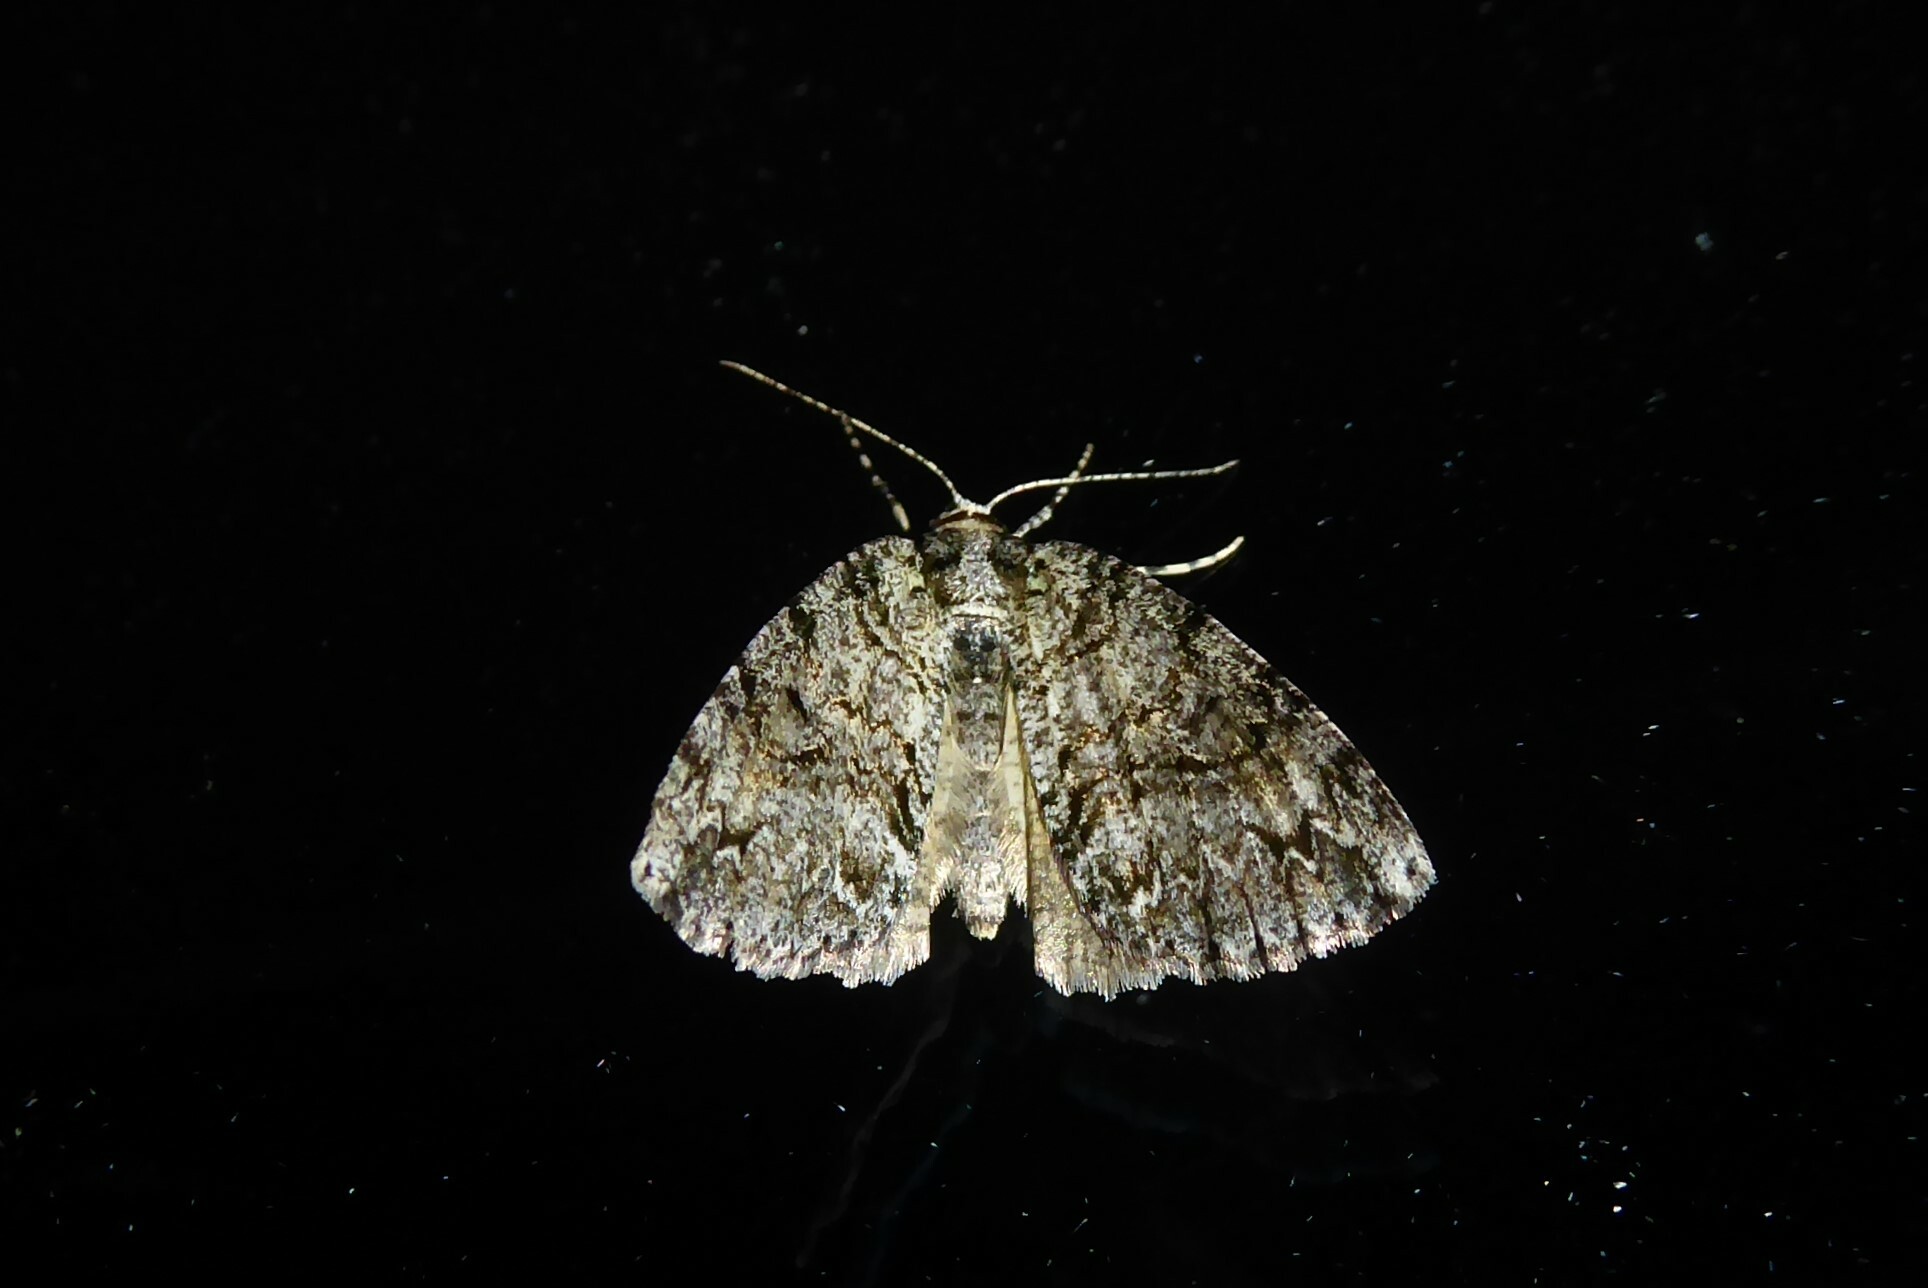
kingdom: Animalia
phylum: Arthropoda
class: Insecta
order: Lepidoptera
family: Geometridae
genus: Pseudocoremia
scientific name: Pseudocoremia suavis
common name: Common forest looper
